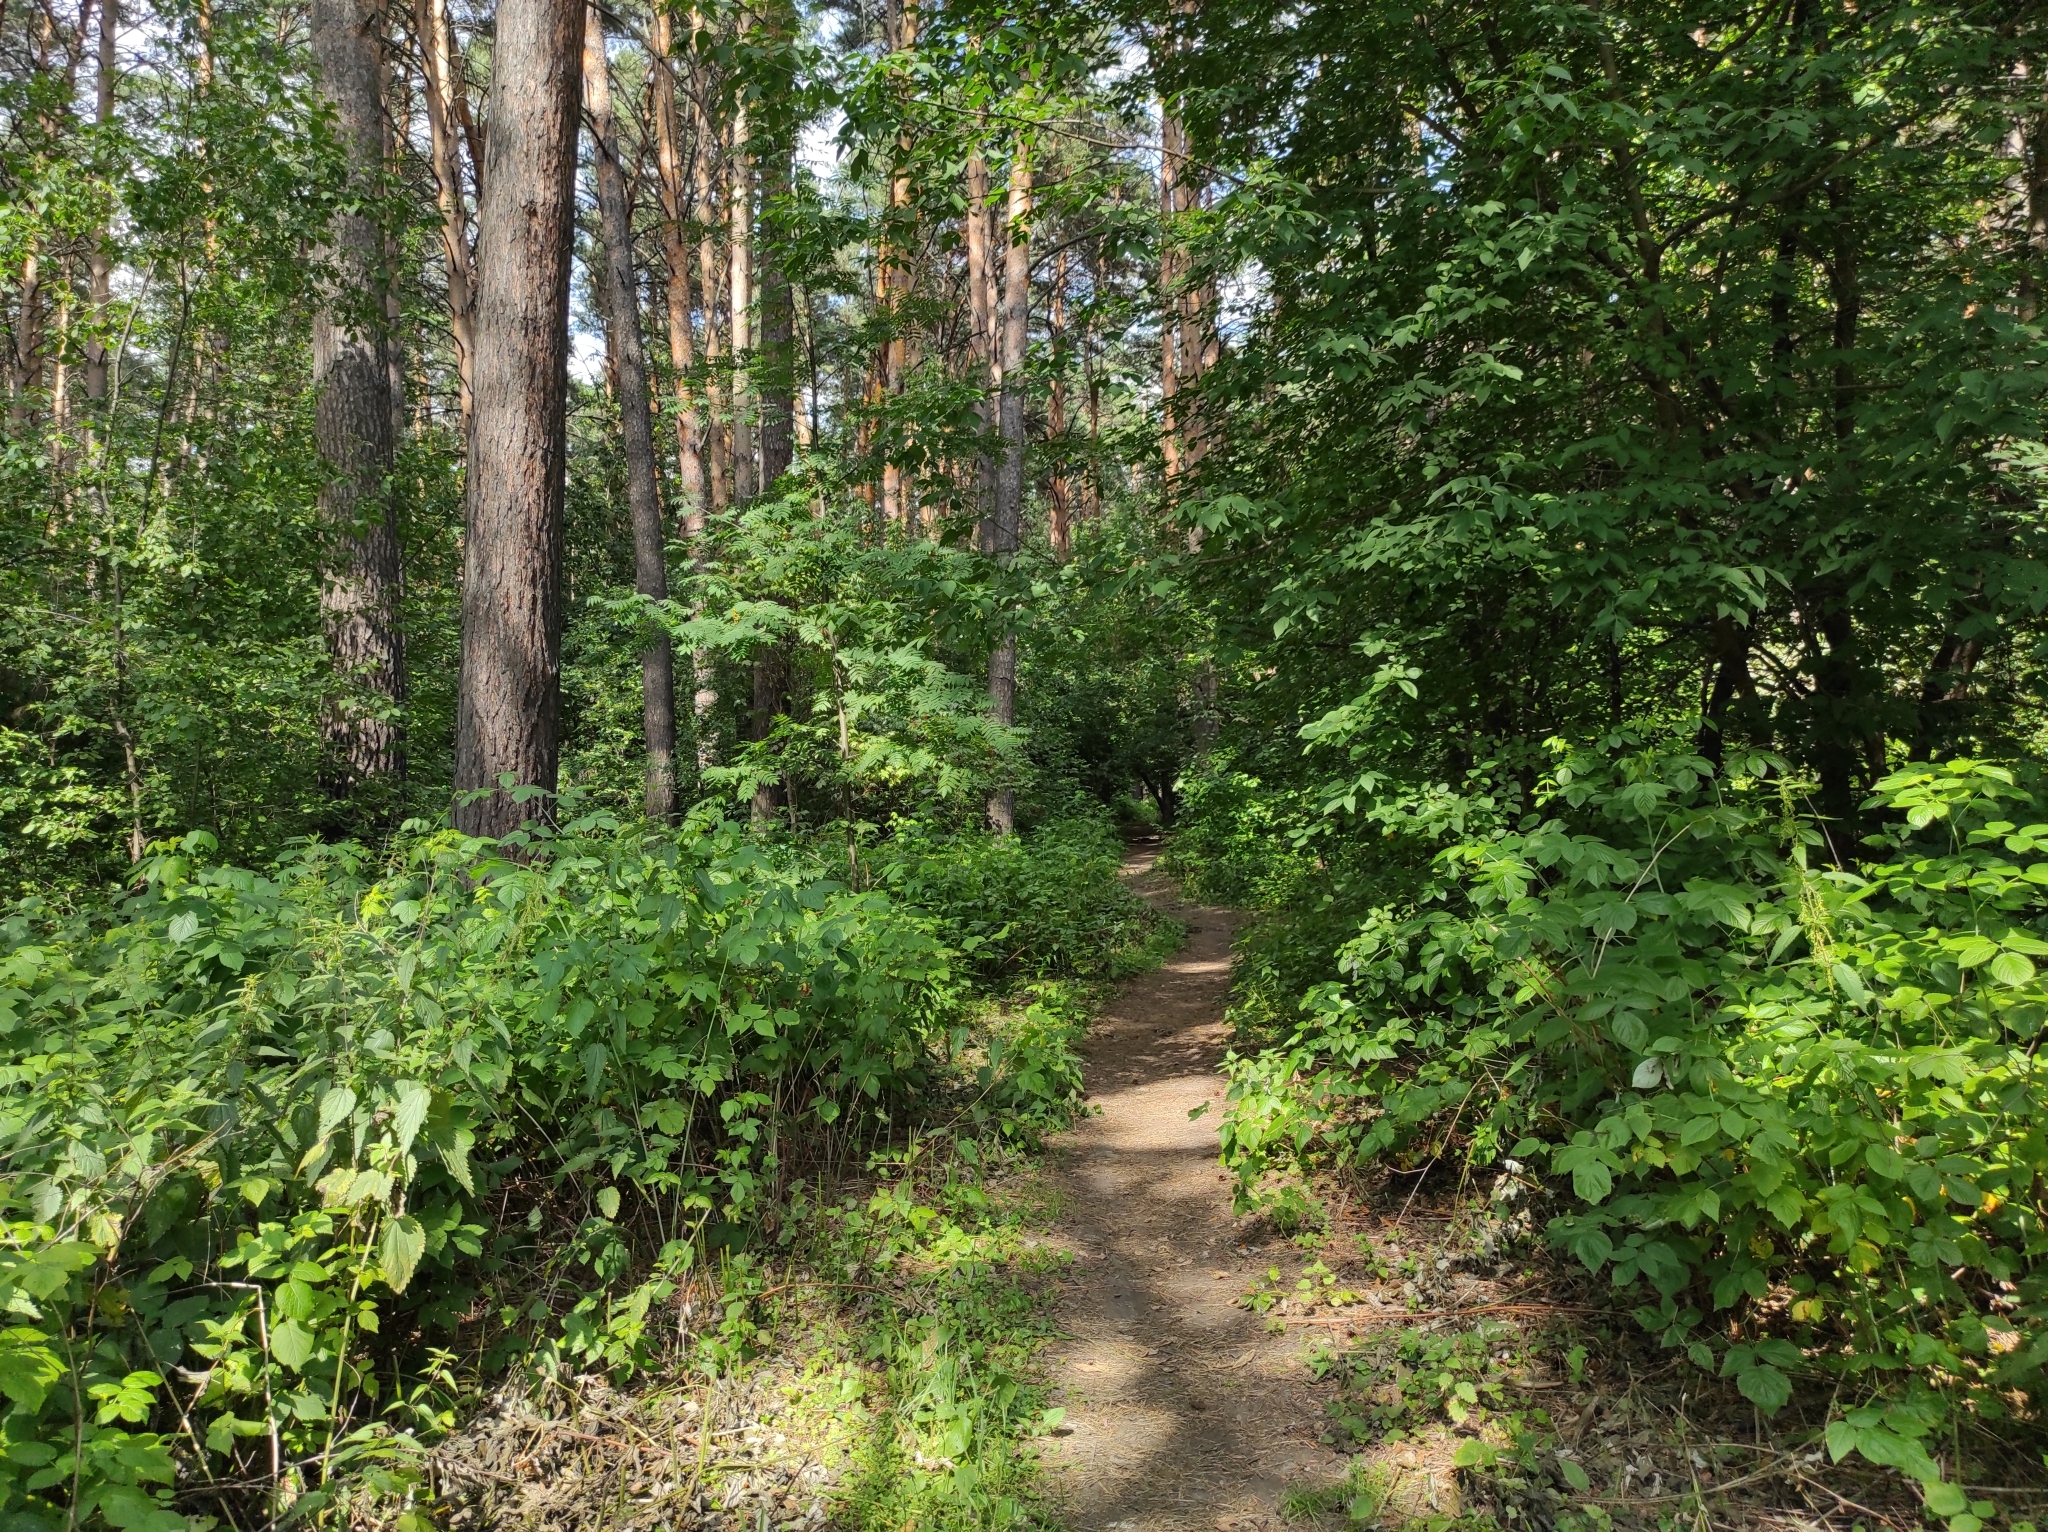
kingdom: Plantae
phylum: Tracheophyta
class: Pinopsida
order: Pinales
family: Pinaceae
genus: Pinus
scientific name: Pinus sylvestris
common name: Scots pine
